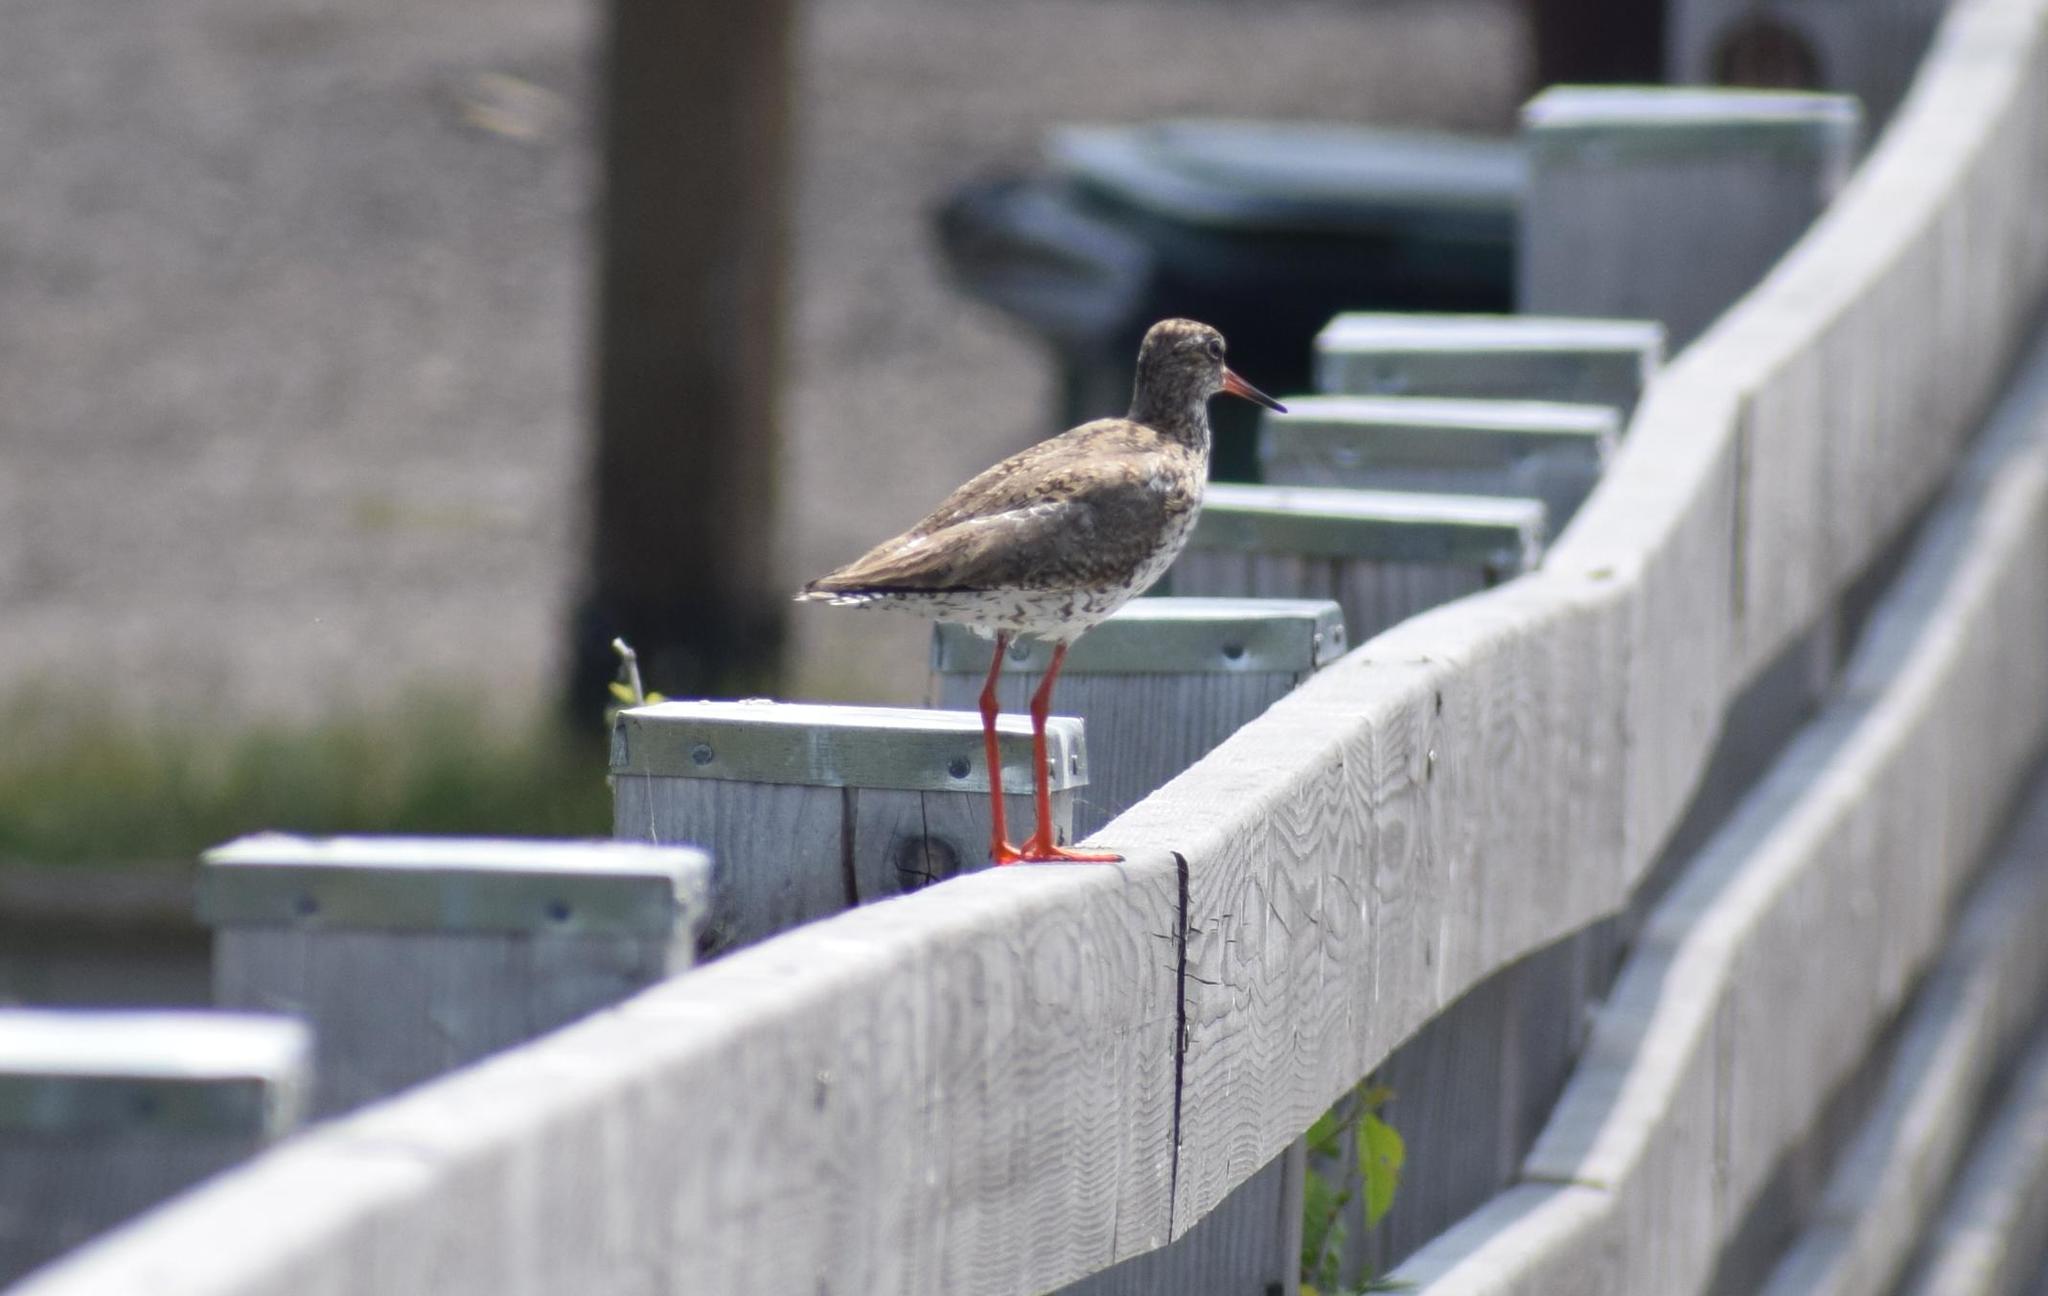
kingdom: Animalia
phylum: Chordata
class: Aves
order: Charadriiformes
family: Scolopacidae
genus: Tringa
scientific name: Tringa totanus
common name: Common redshank
